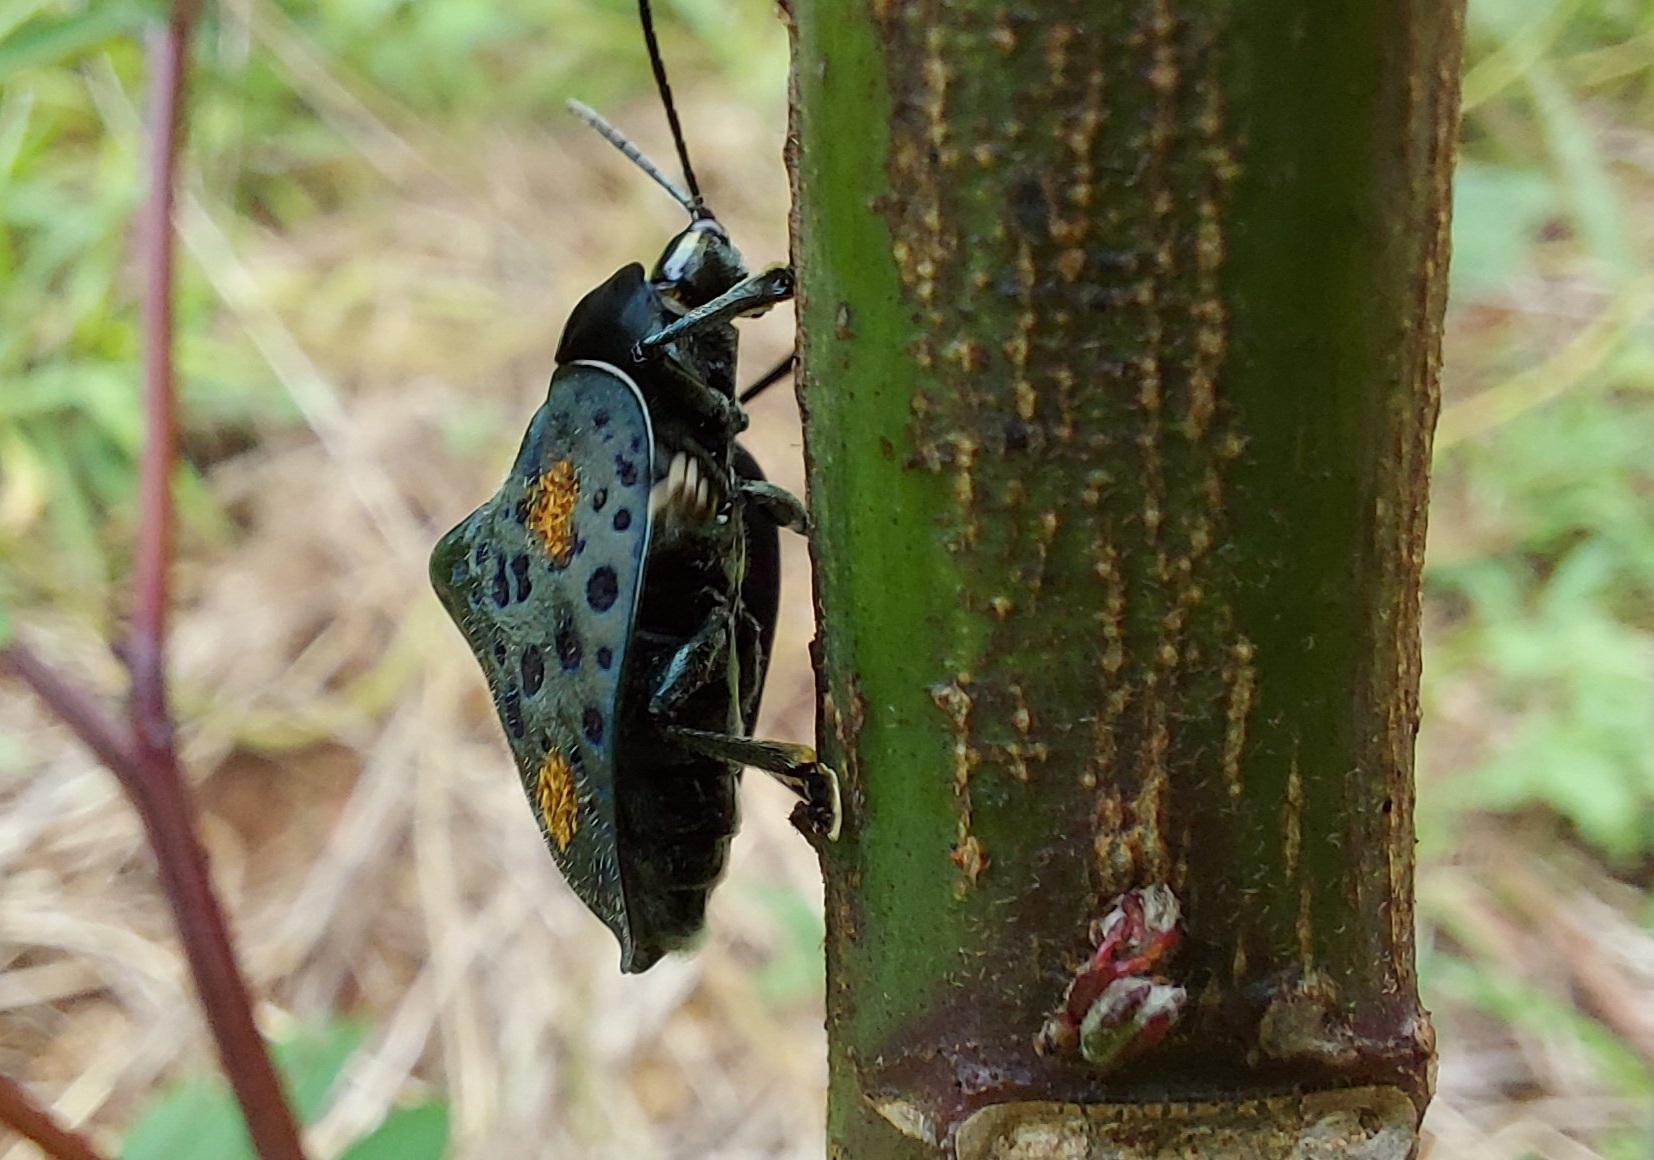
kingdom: Animalia
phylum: Arthropoda
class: Insecta
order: Coleoptera
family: Chrysomelidae
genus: Stolas
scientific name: Stolas conspersa
